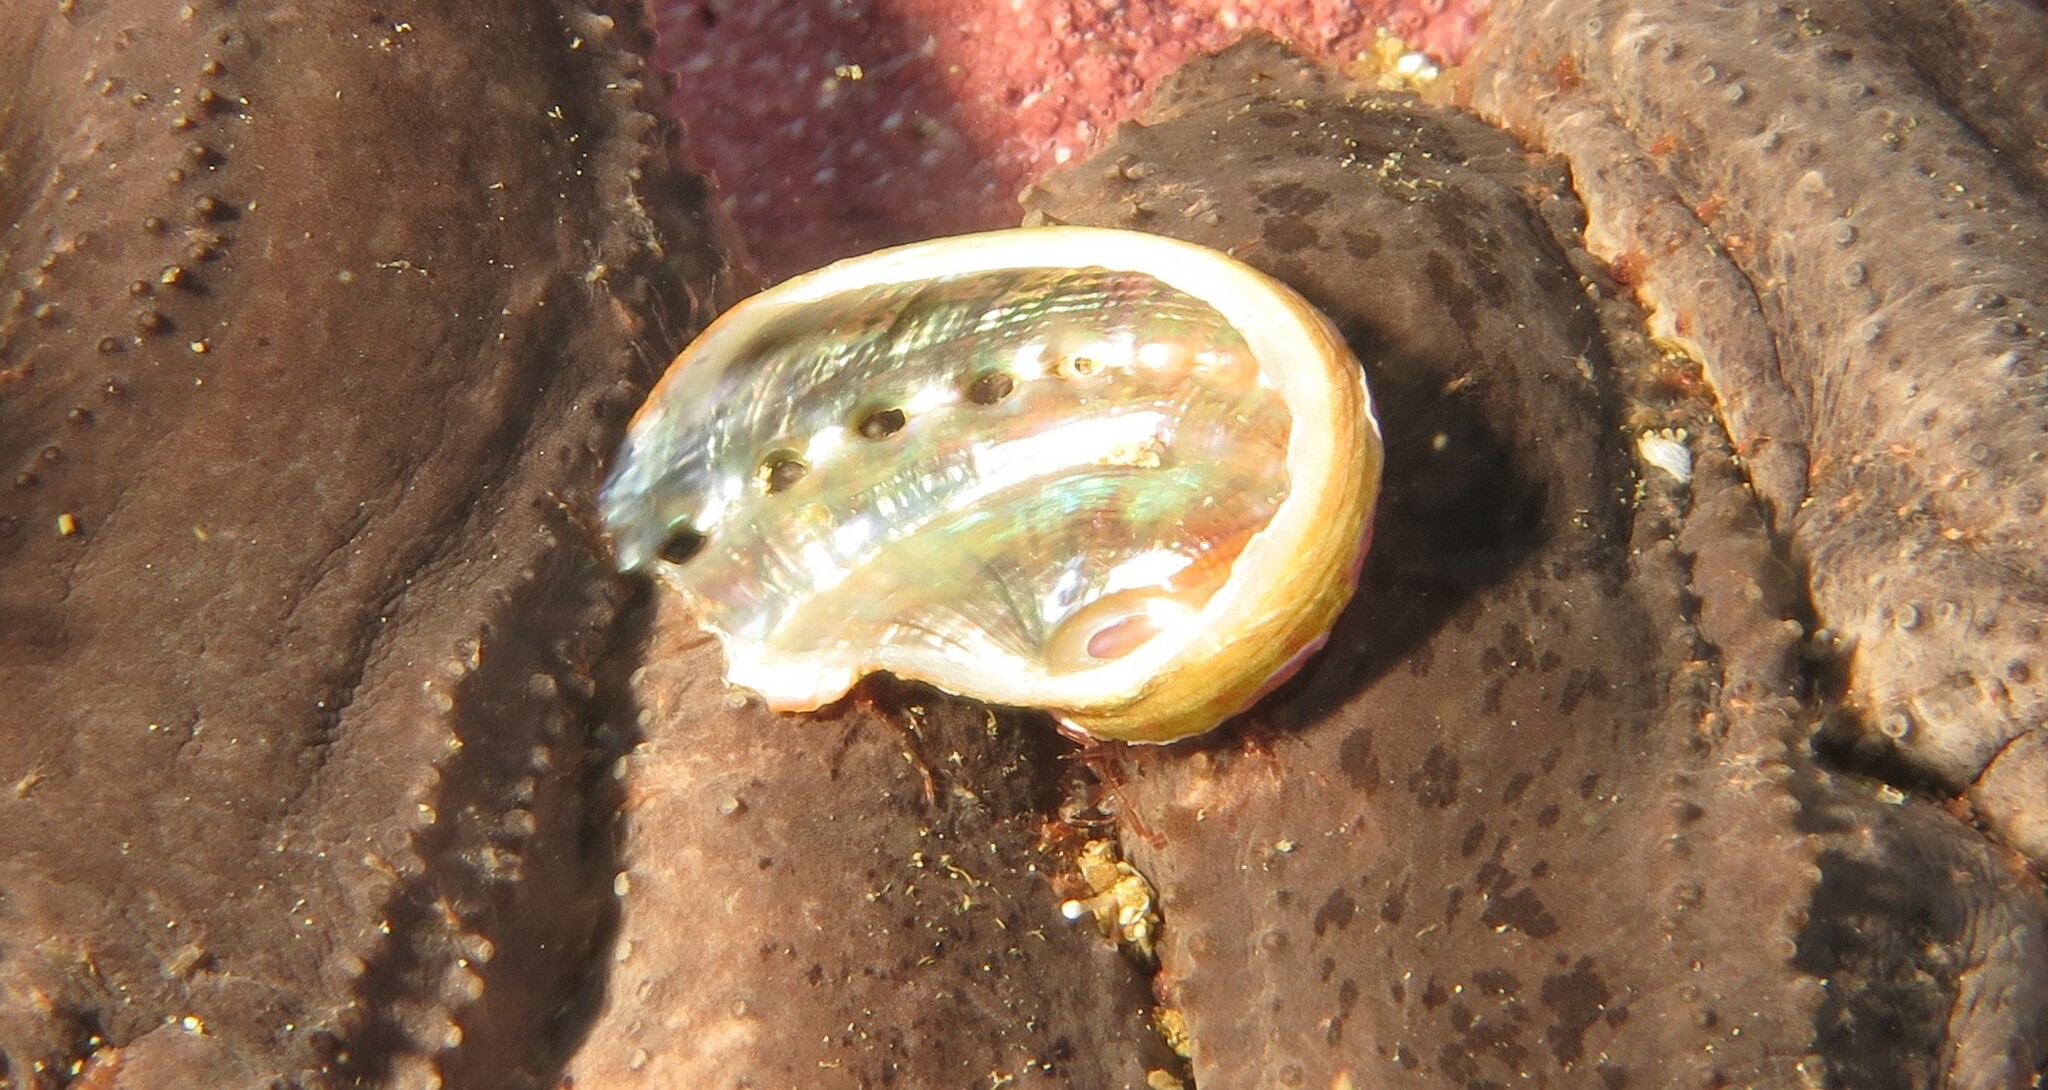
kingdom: Animalia
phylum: Mollusca
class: Gastropoda
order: Lepetellida
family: Haliotidae
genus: Haliotis
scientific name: Haliotis parva
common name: Spiral-ridged siffie
